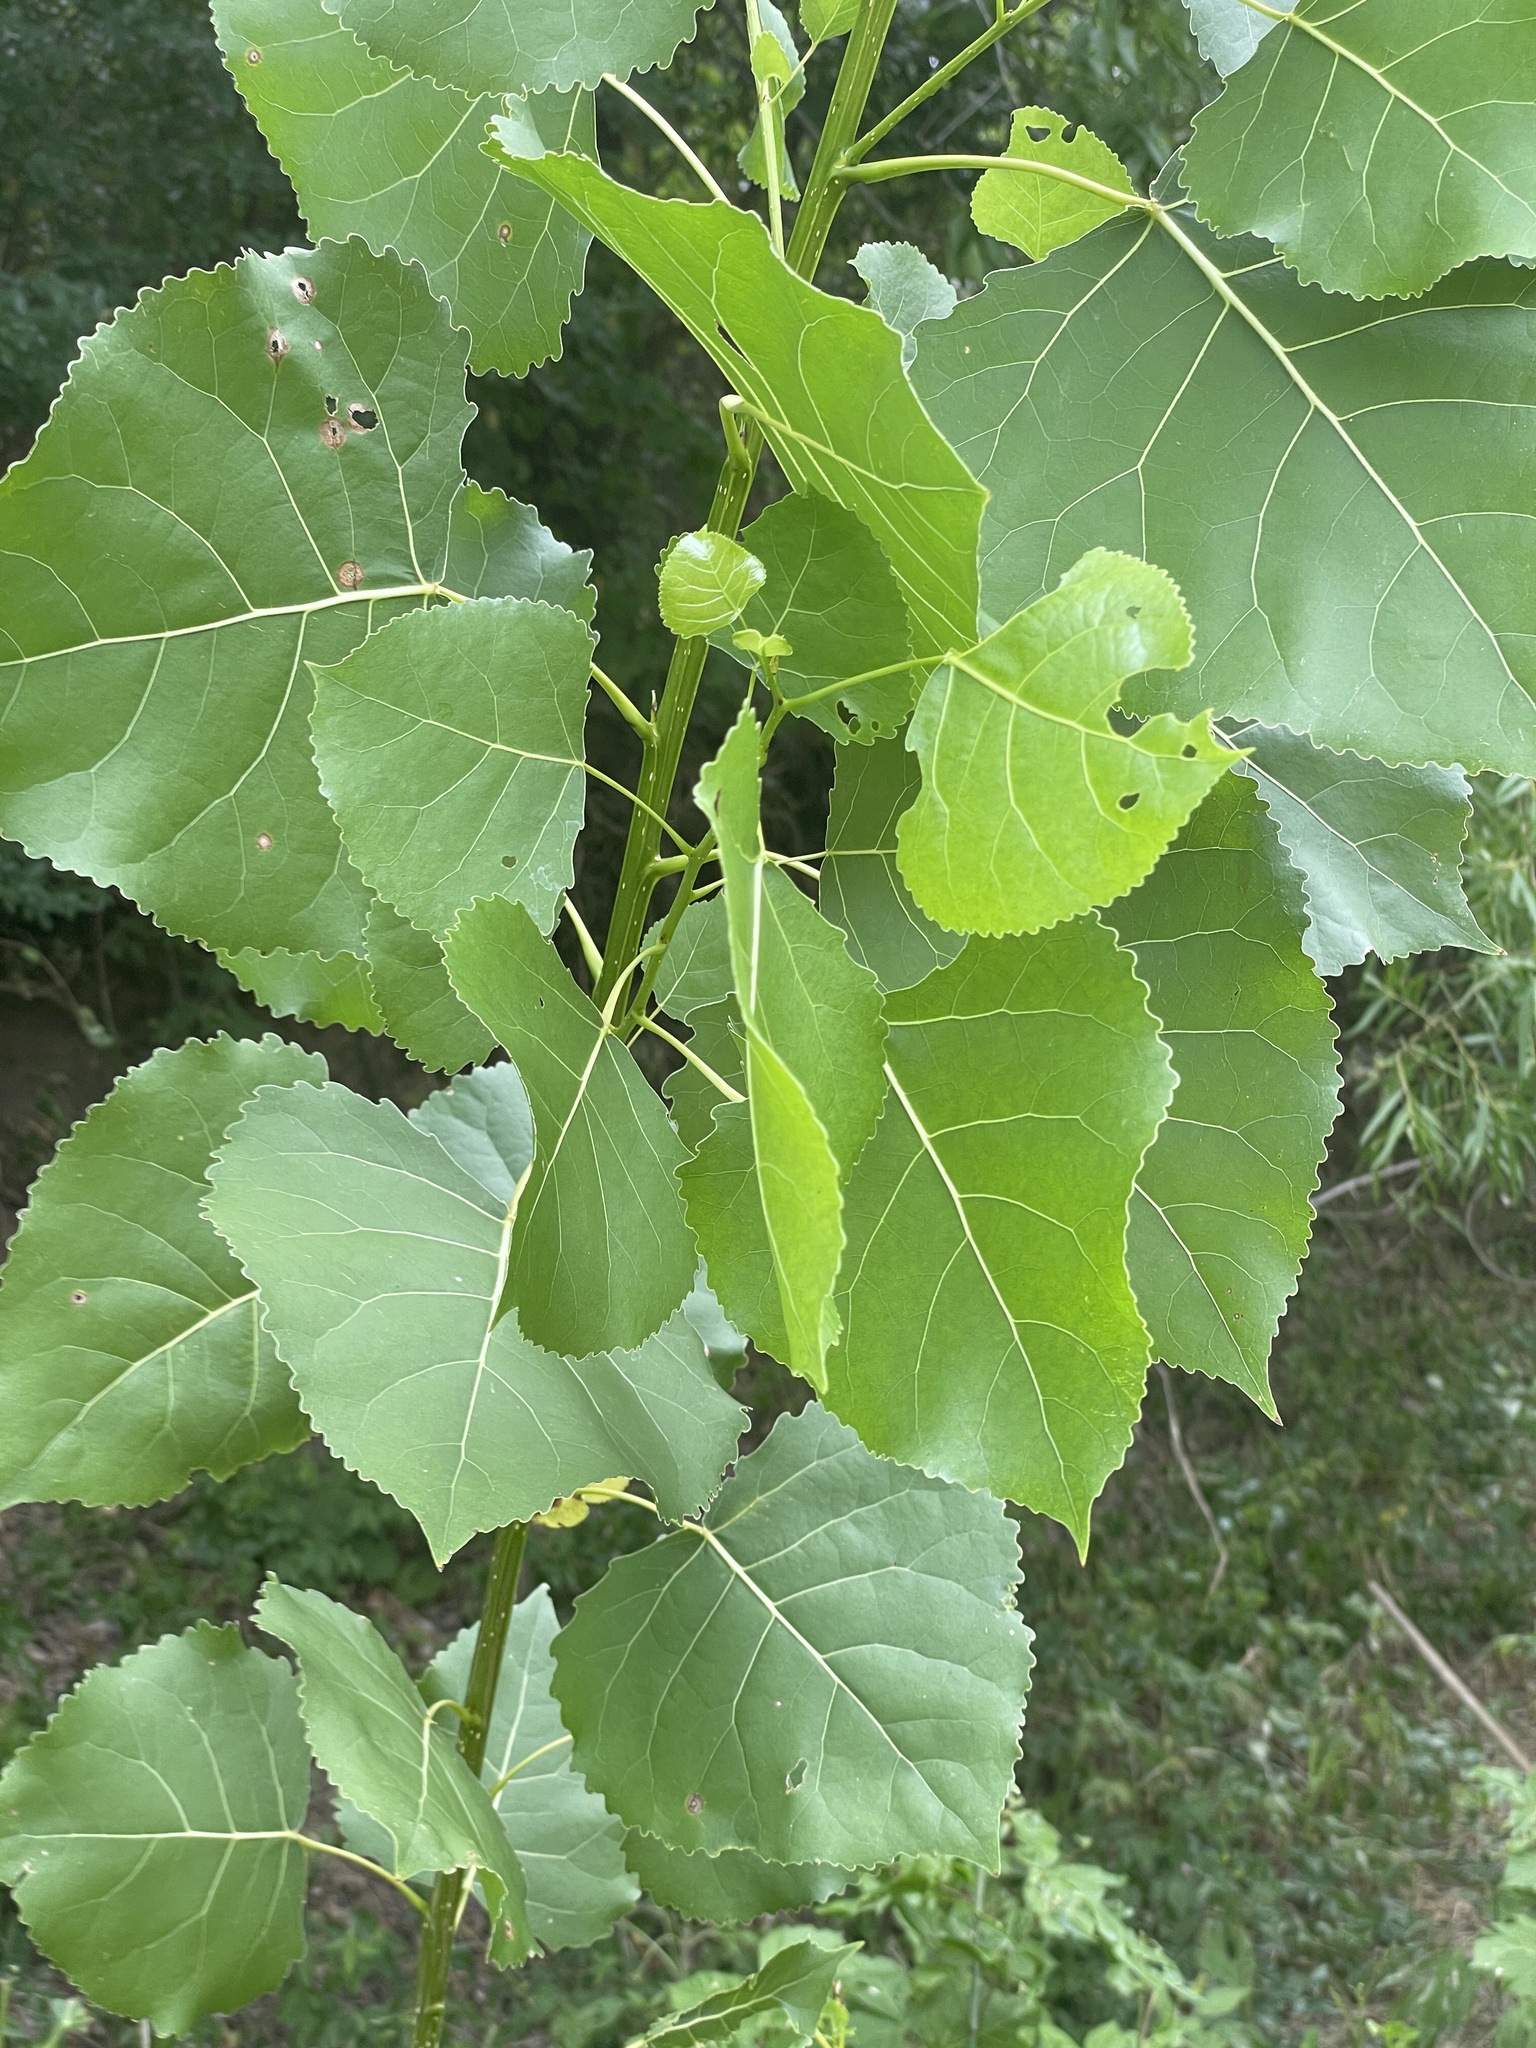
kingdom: Plantae
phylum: Tracheophyta
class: Magnoliopsida
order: Malpighiales
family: Salicaceae
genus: Populus
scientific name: Populus deltoides
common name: Eastern cottonwood
